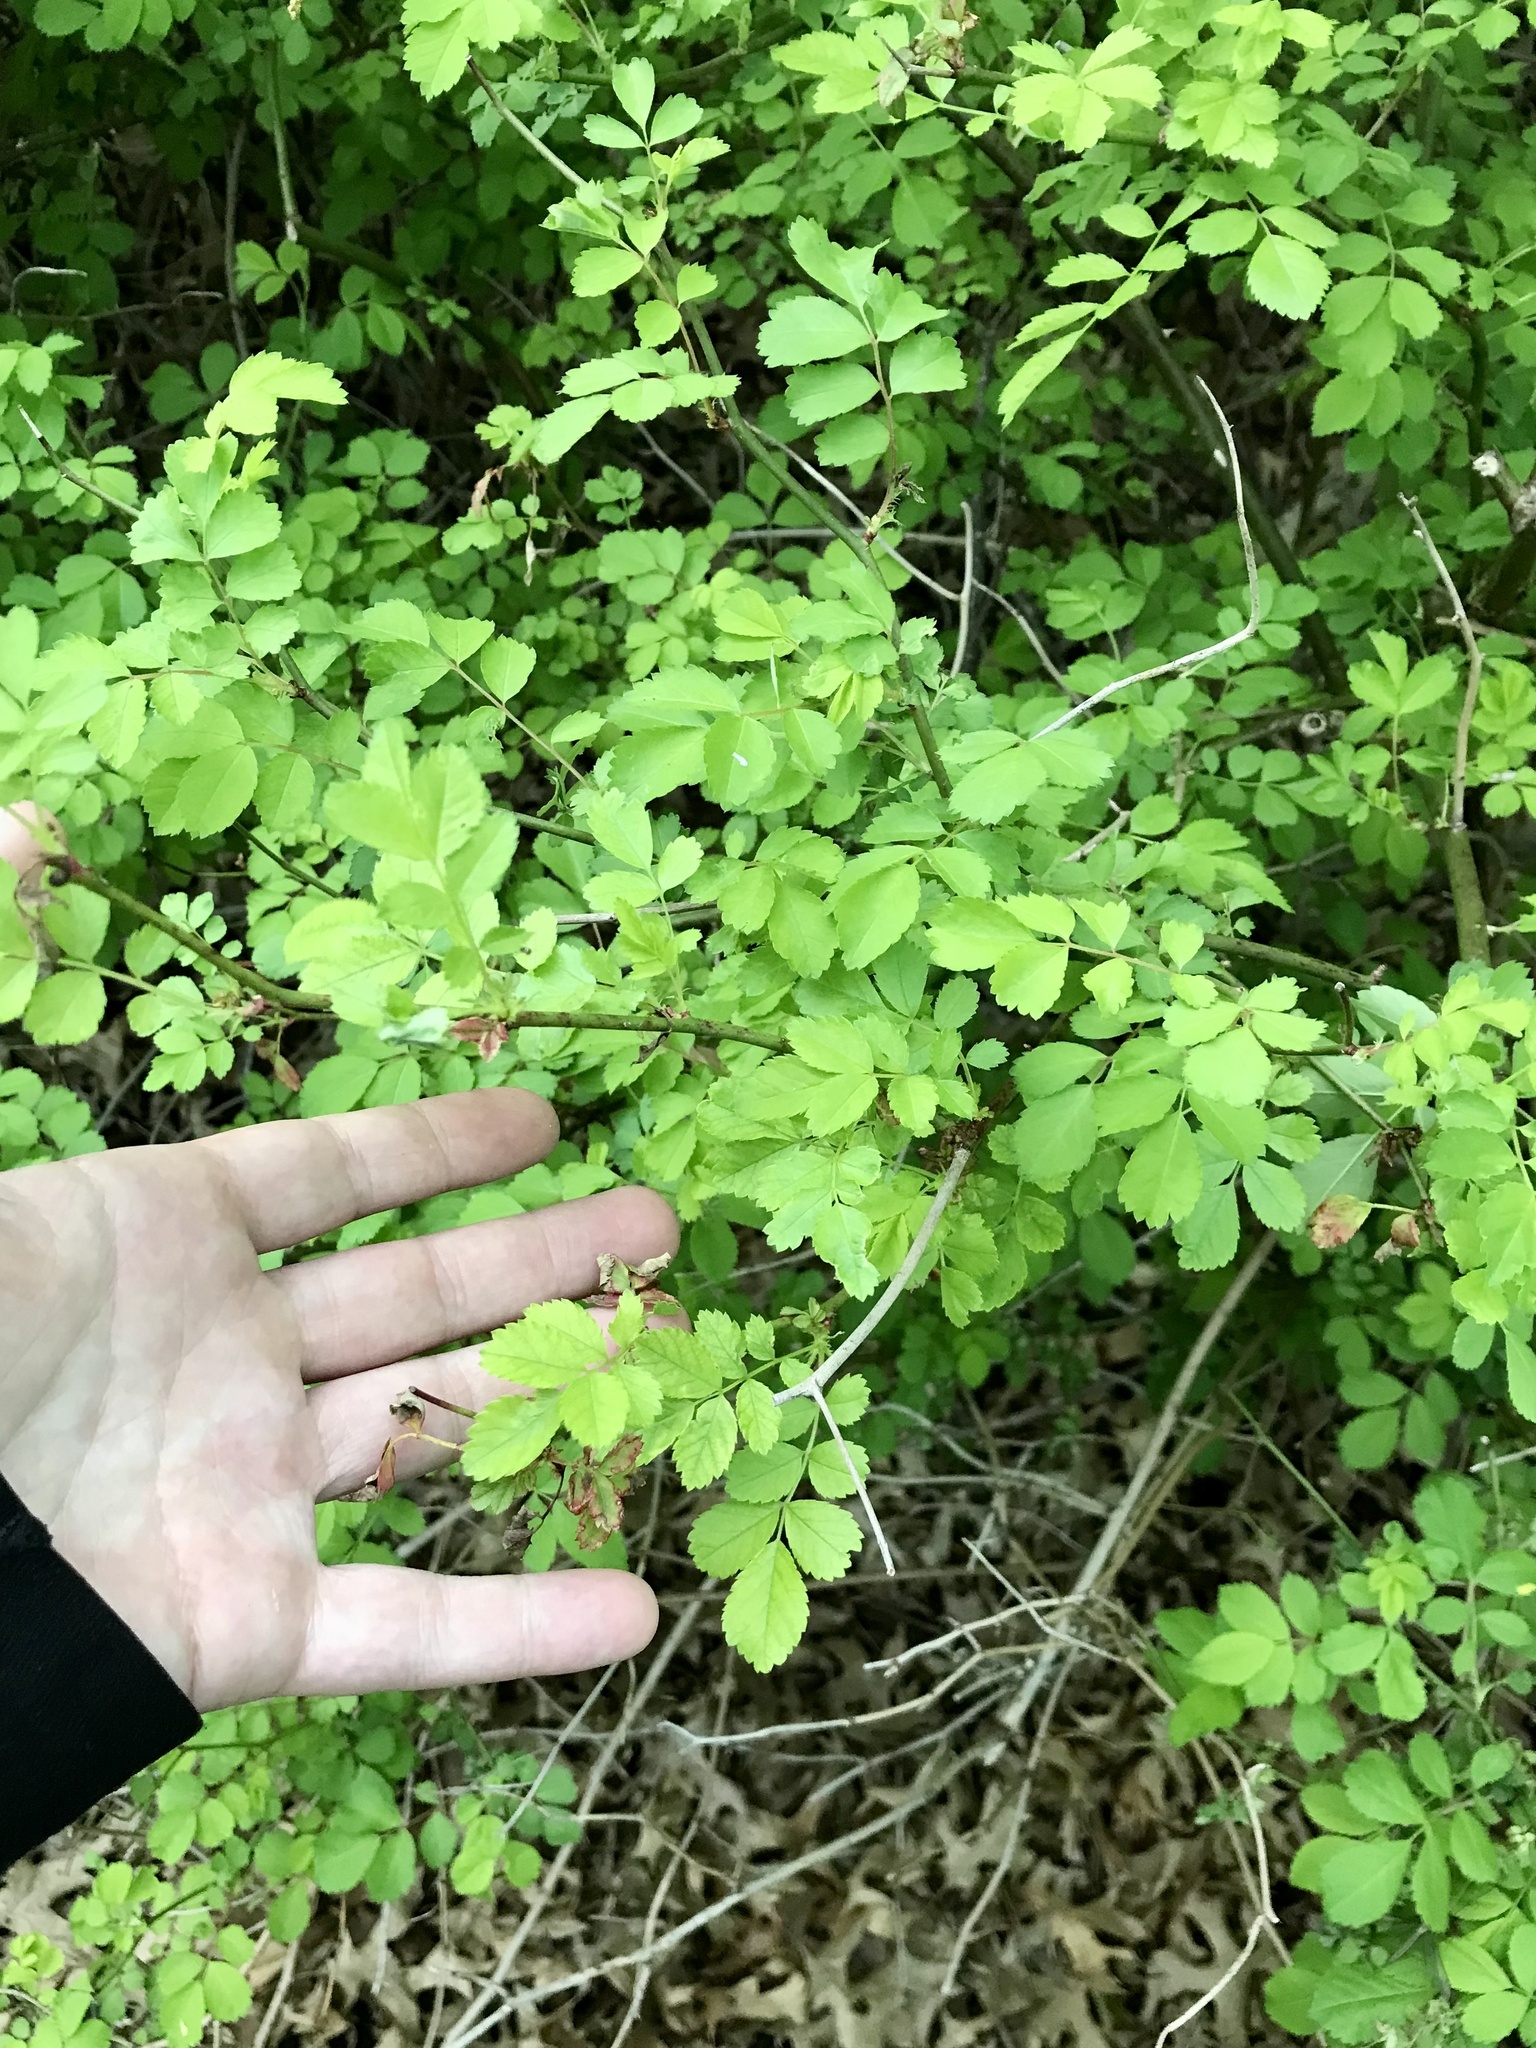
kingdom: Plantae
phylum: Tracheophyta
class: Magnoliopsida
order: Rosales
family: Rosaceae
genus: Rosa
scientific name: Rosa multiflora
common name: Multiflora rose
